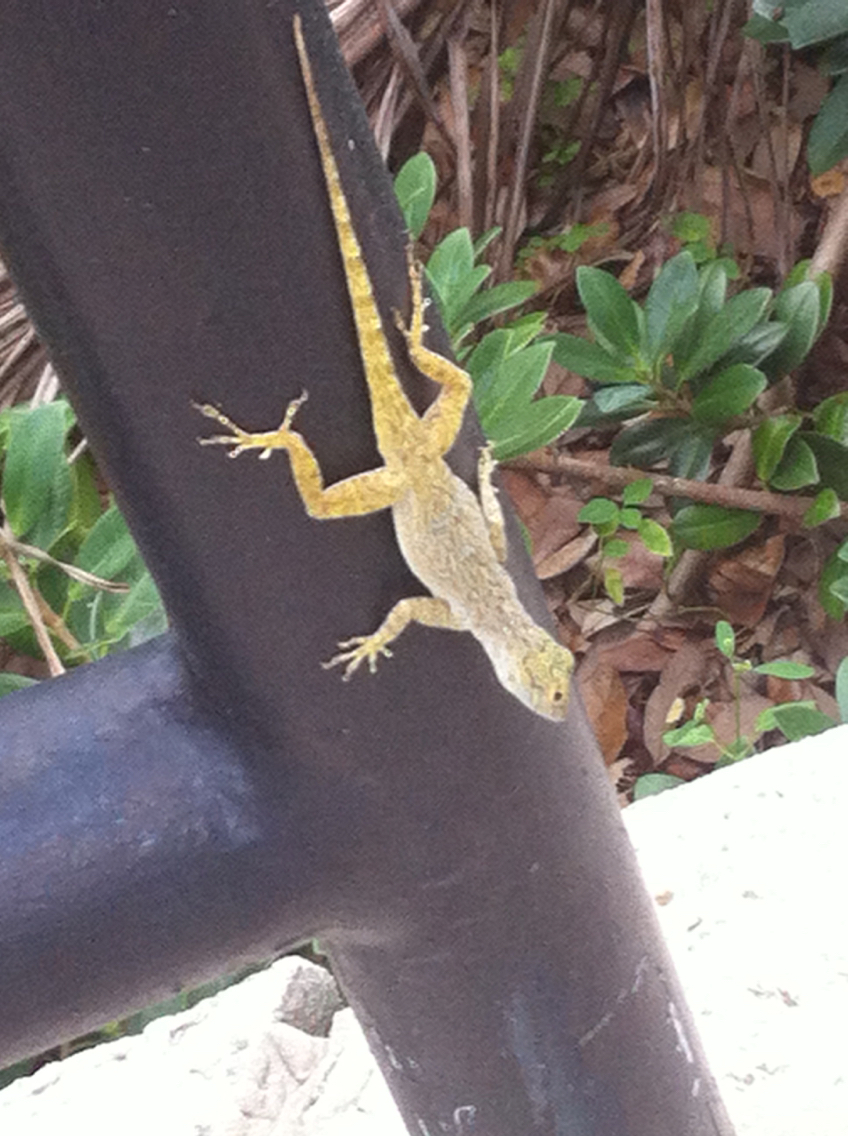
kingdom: Animalia
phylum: Chordata
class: Squamata
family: Dactyloidae
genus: Anolis
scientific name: Anolis distichus
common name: Bark anole
